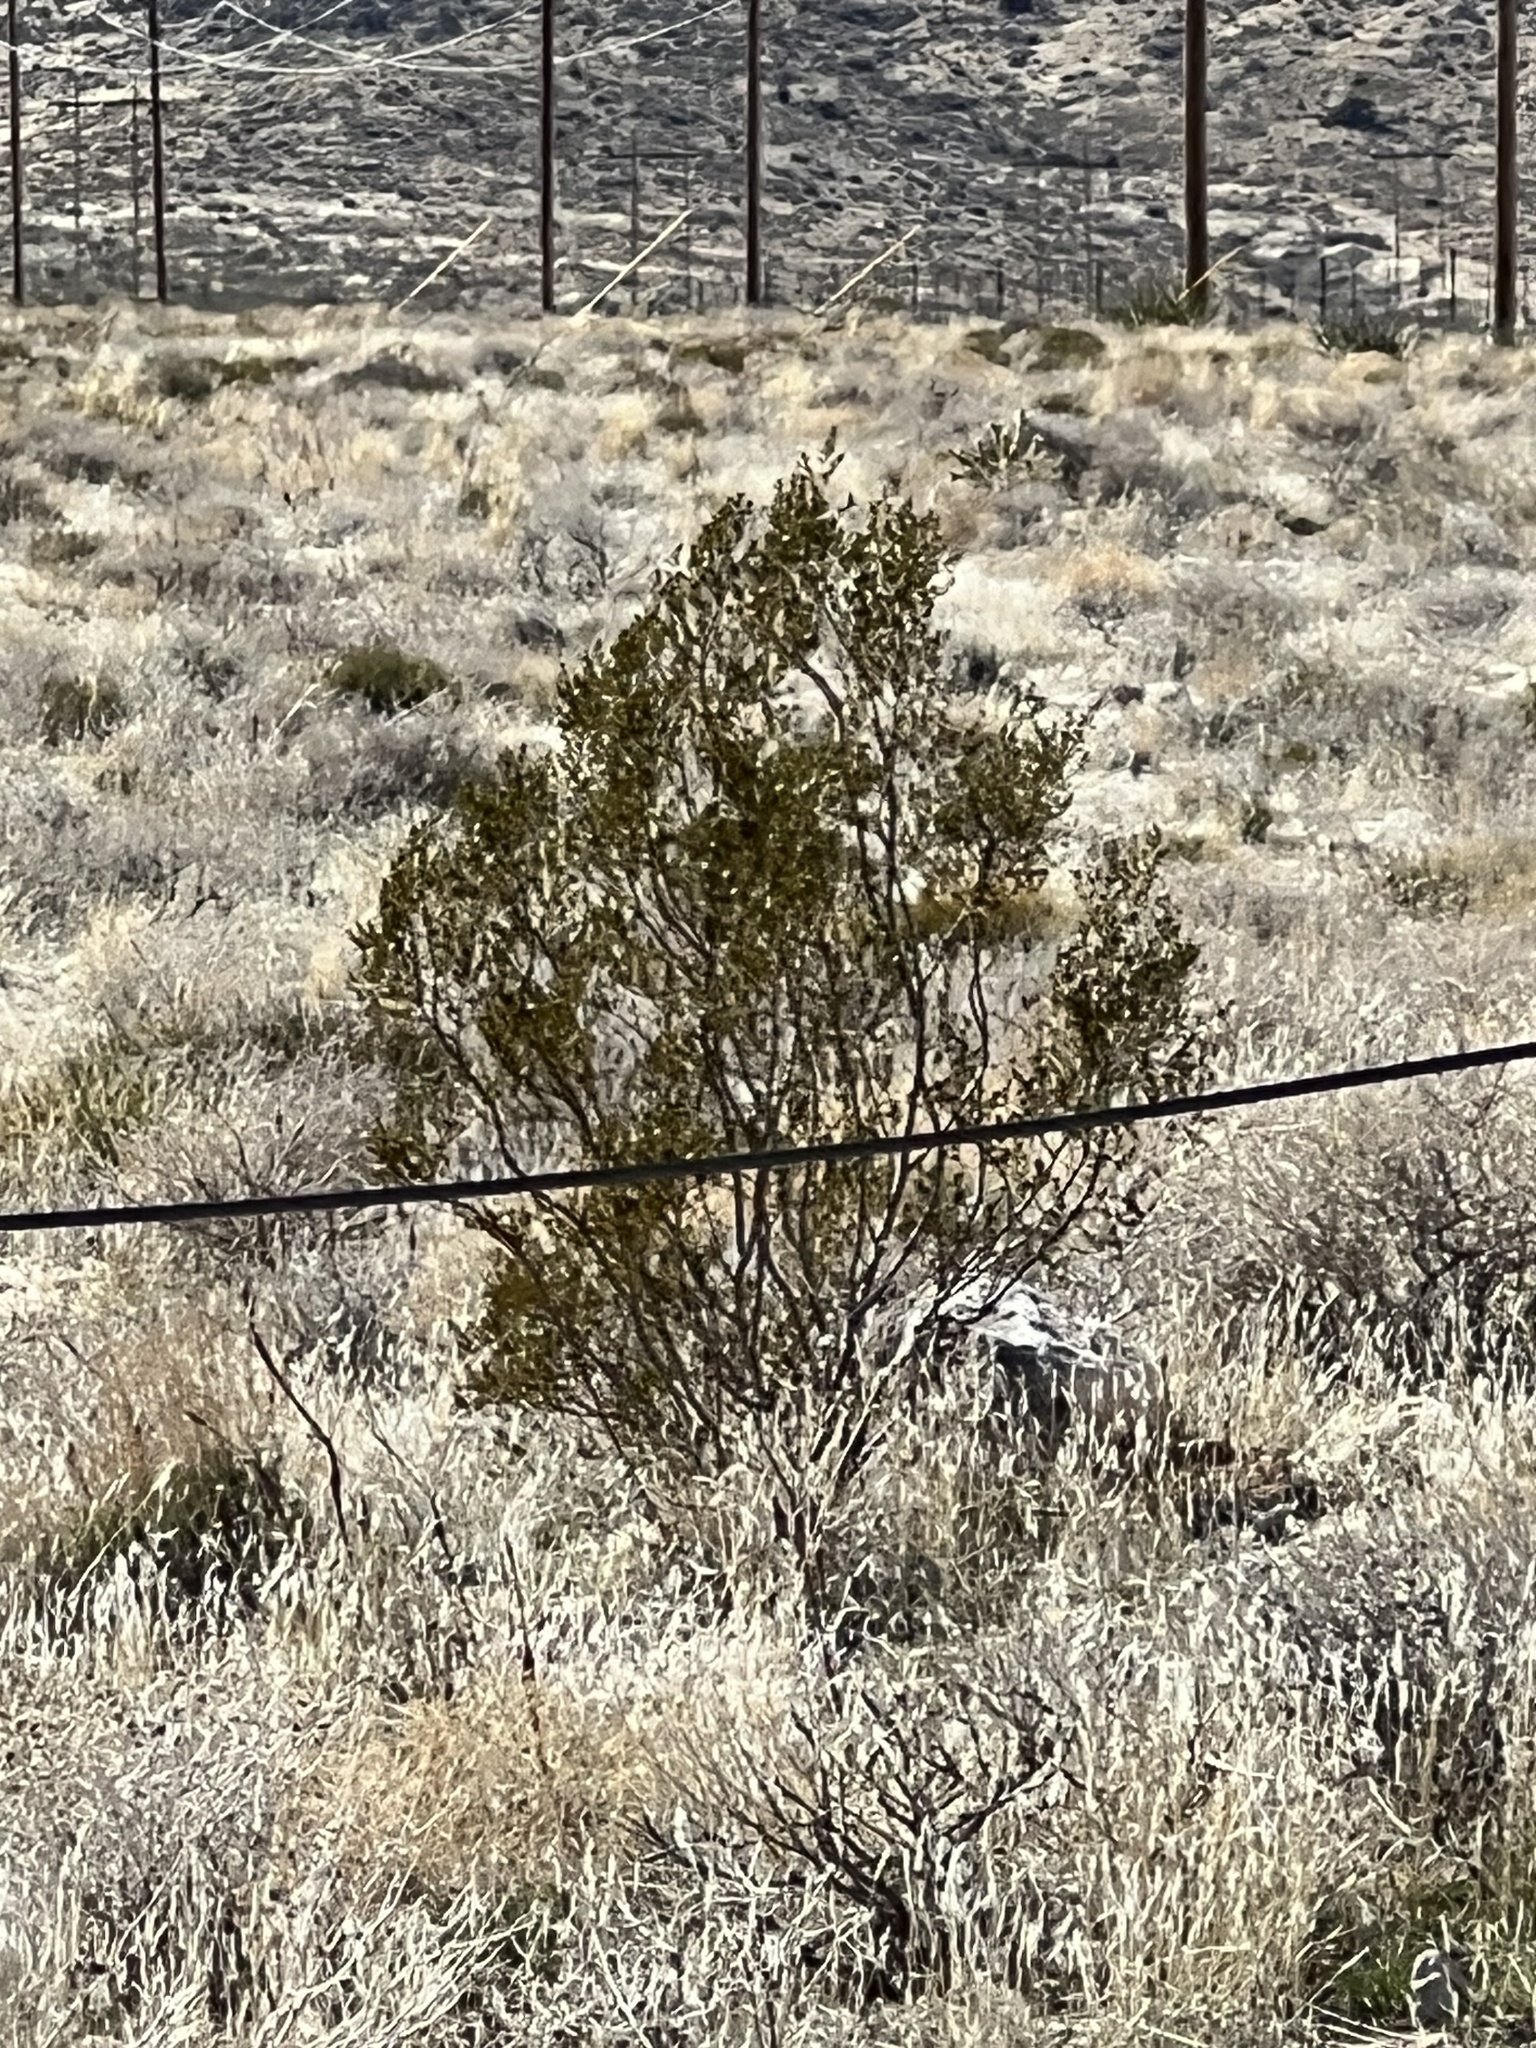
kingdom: Plantae
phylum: Tracheophyta
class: Magnoliopsida
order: Zygophyllales
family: Zygophyllaceae
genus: Larrea
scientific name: Larrea tridentata
